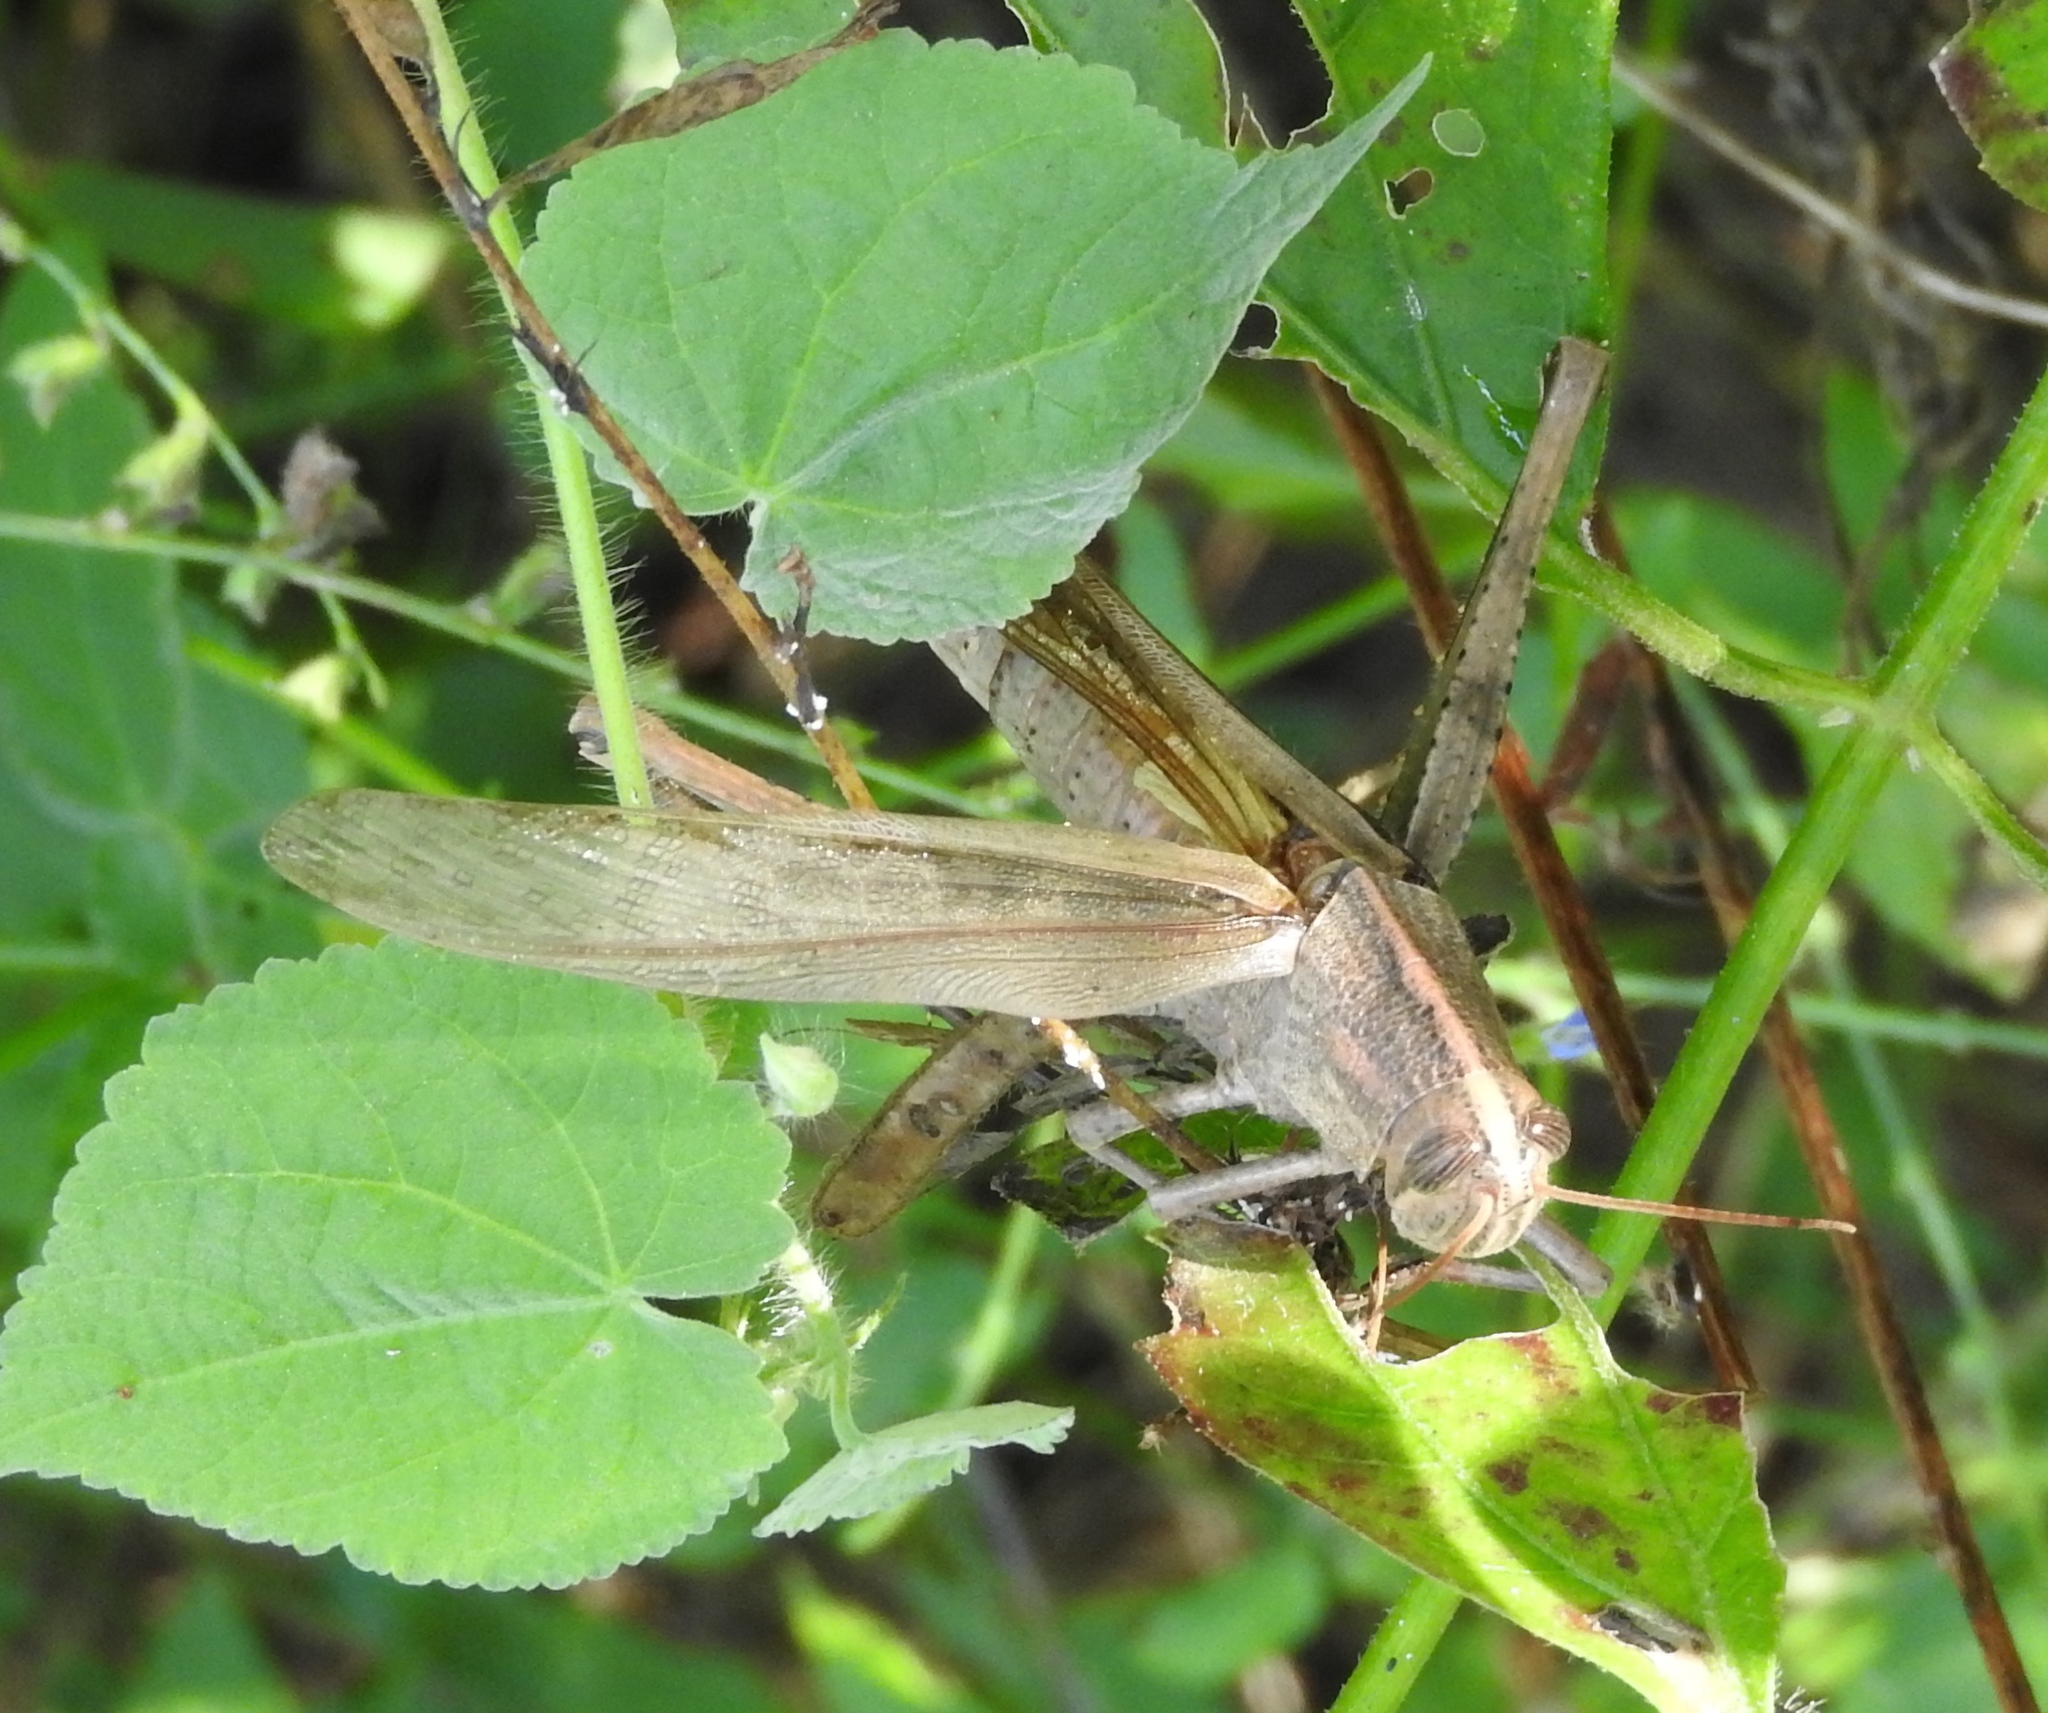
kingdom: Animalia
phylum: Arthropoda
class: Insecta
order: Orthoptera
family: Acrididae
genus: Schistocerca
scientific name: Schistocerca
